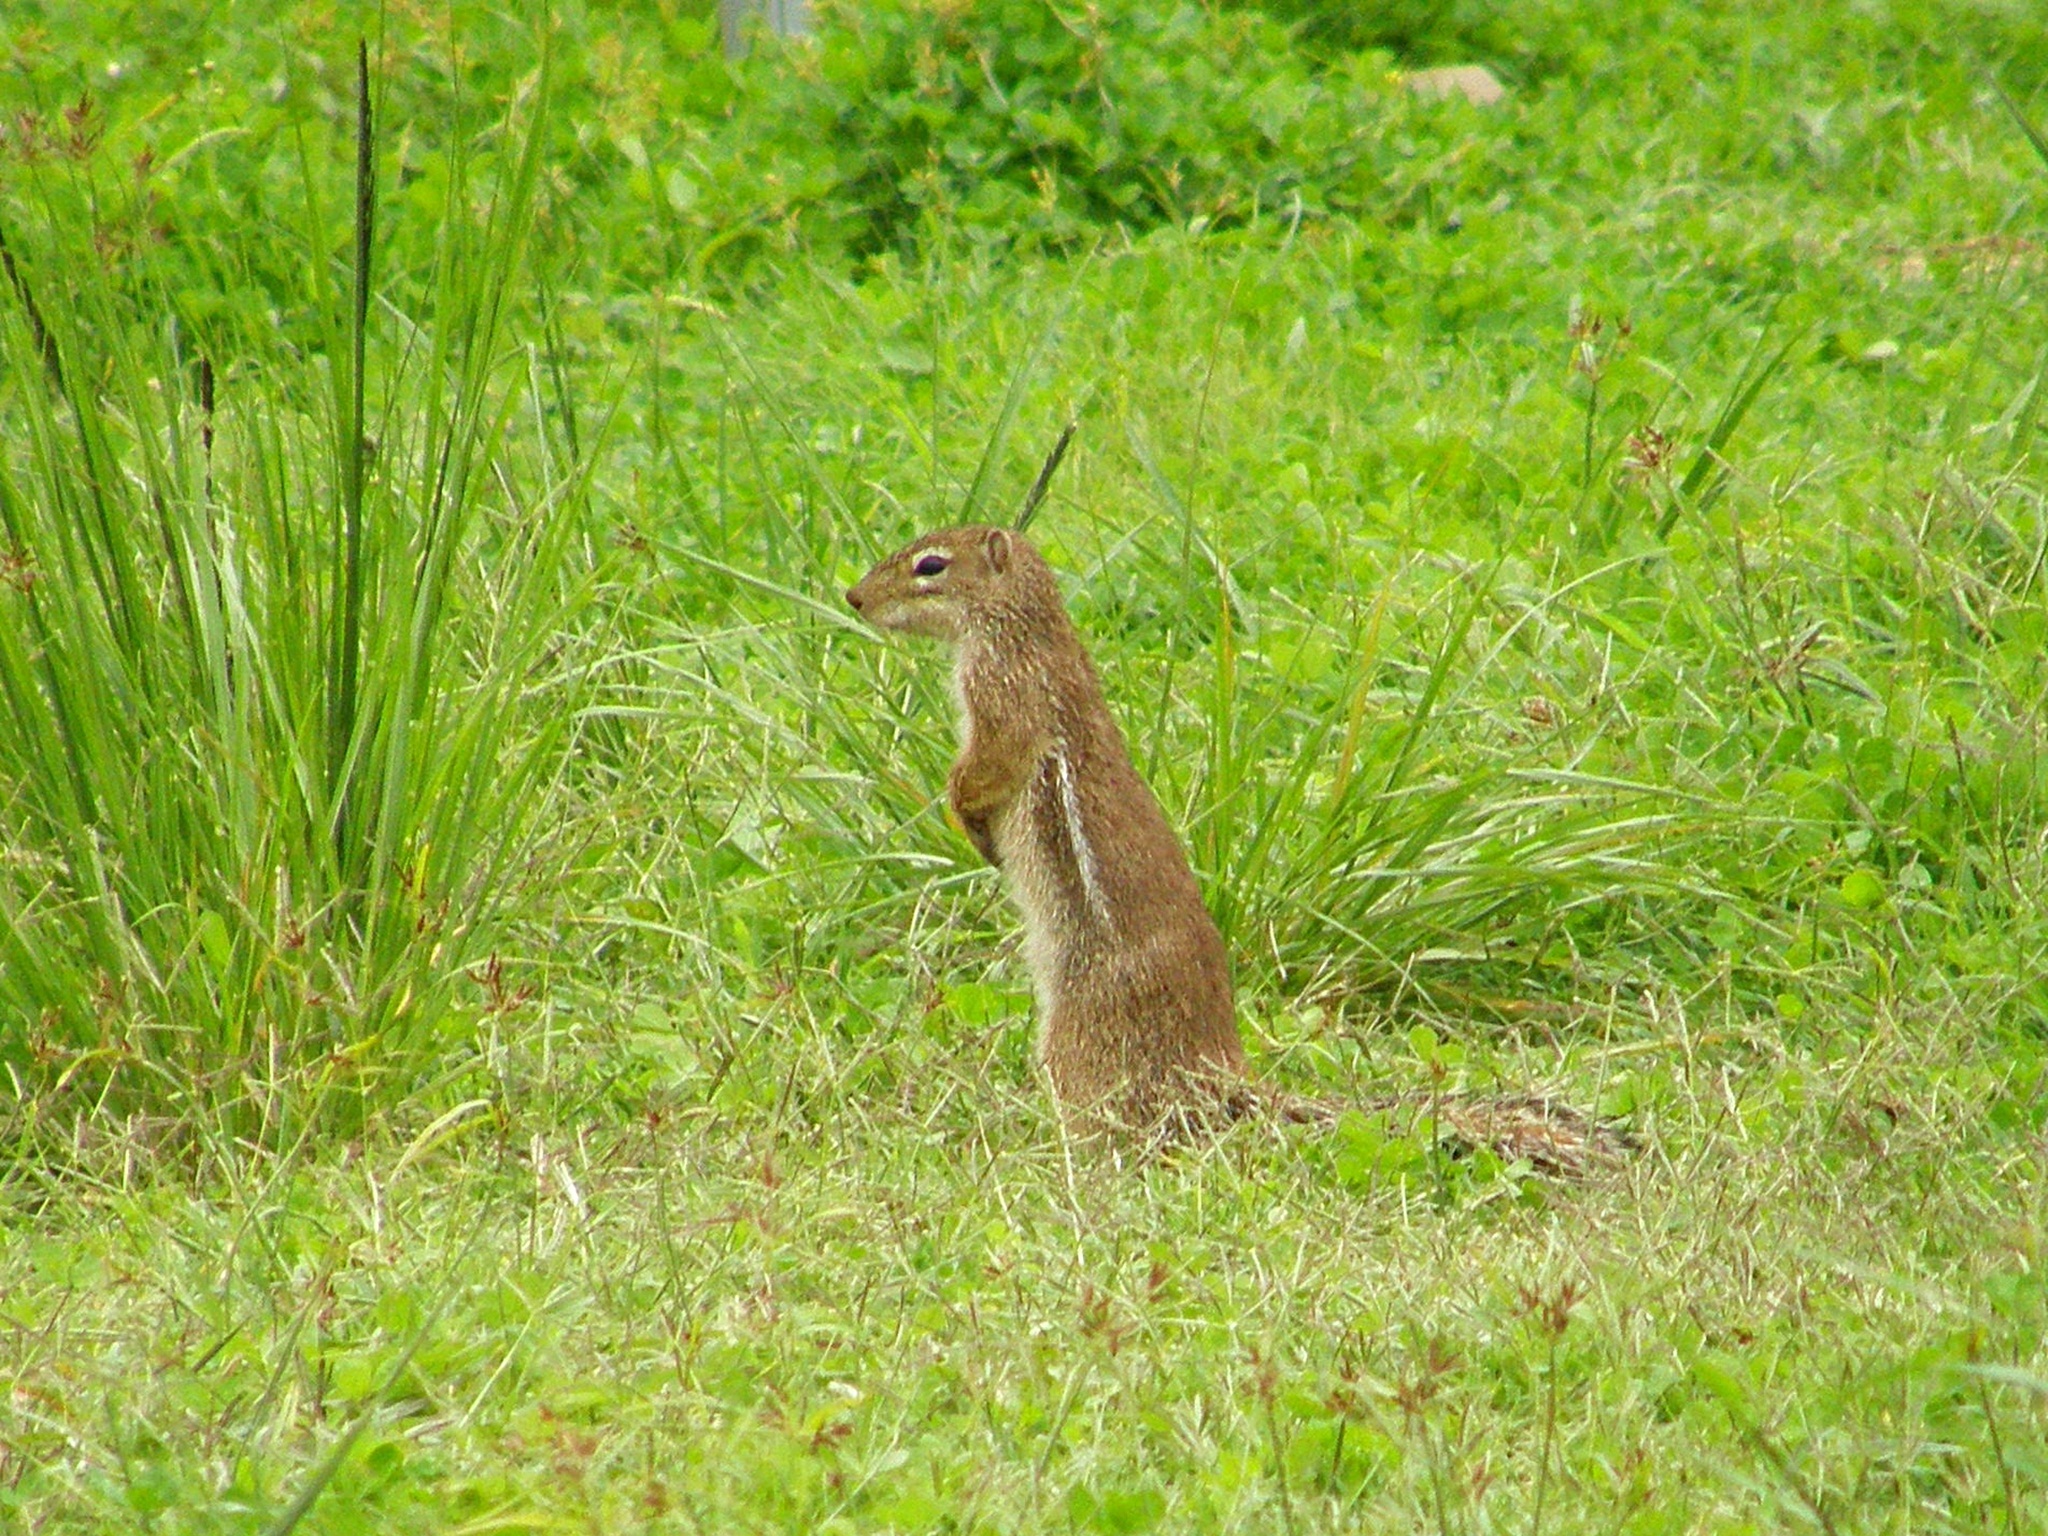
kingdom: Animalia
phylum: Chordata
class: Mammalia
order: Rodentia
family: Sciuridae
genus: Xerus
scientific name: Xerus erythropus
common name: Striped ground squirrel
